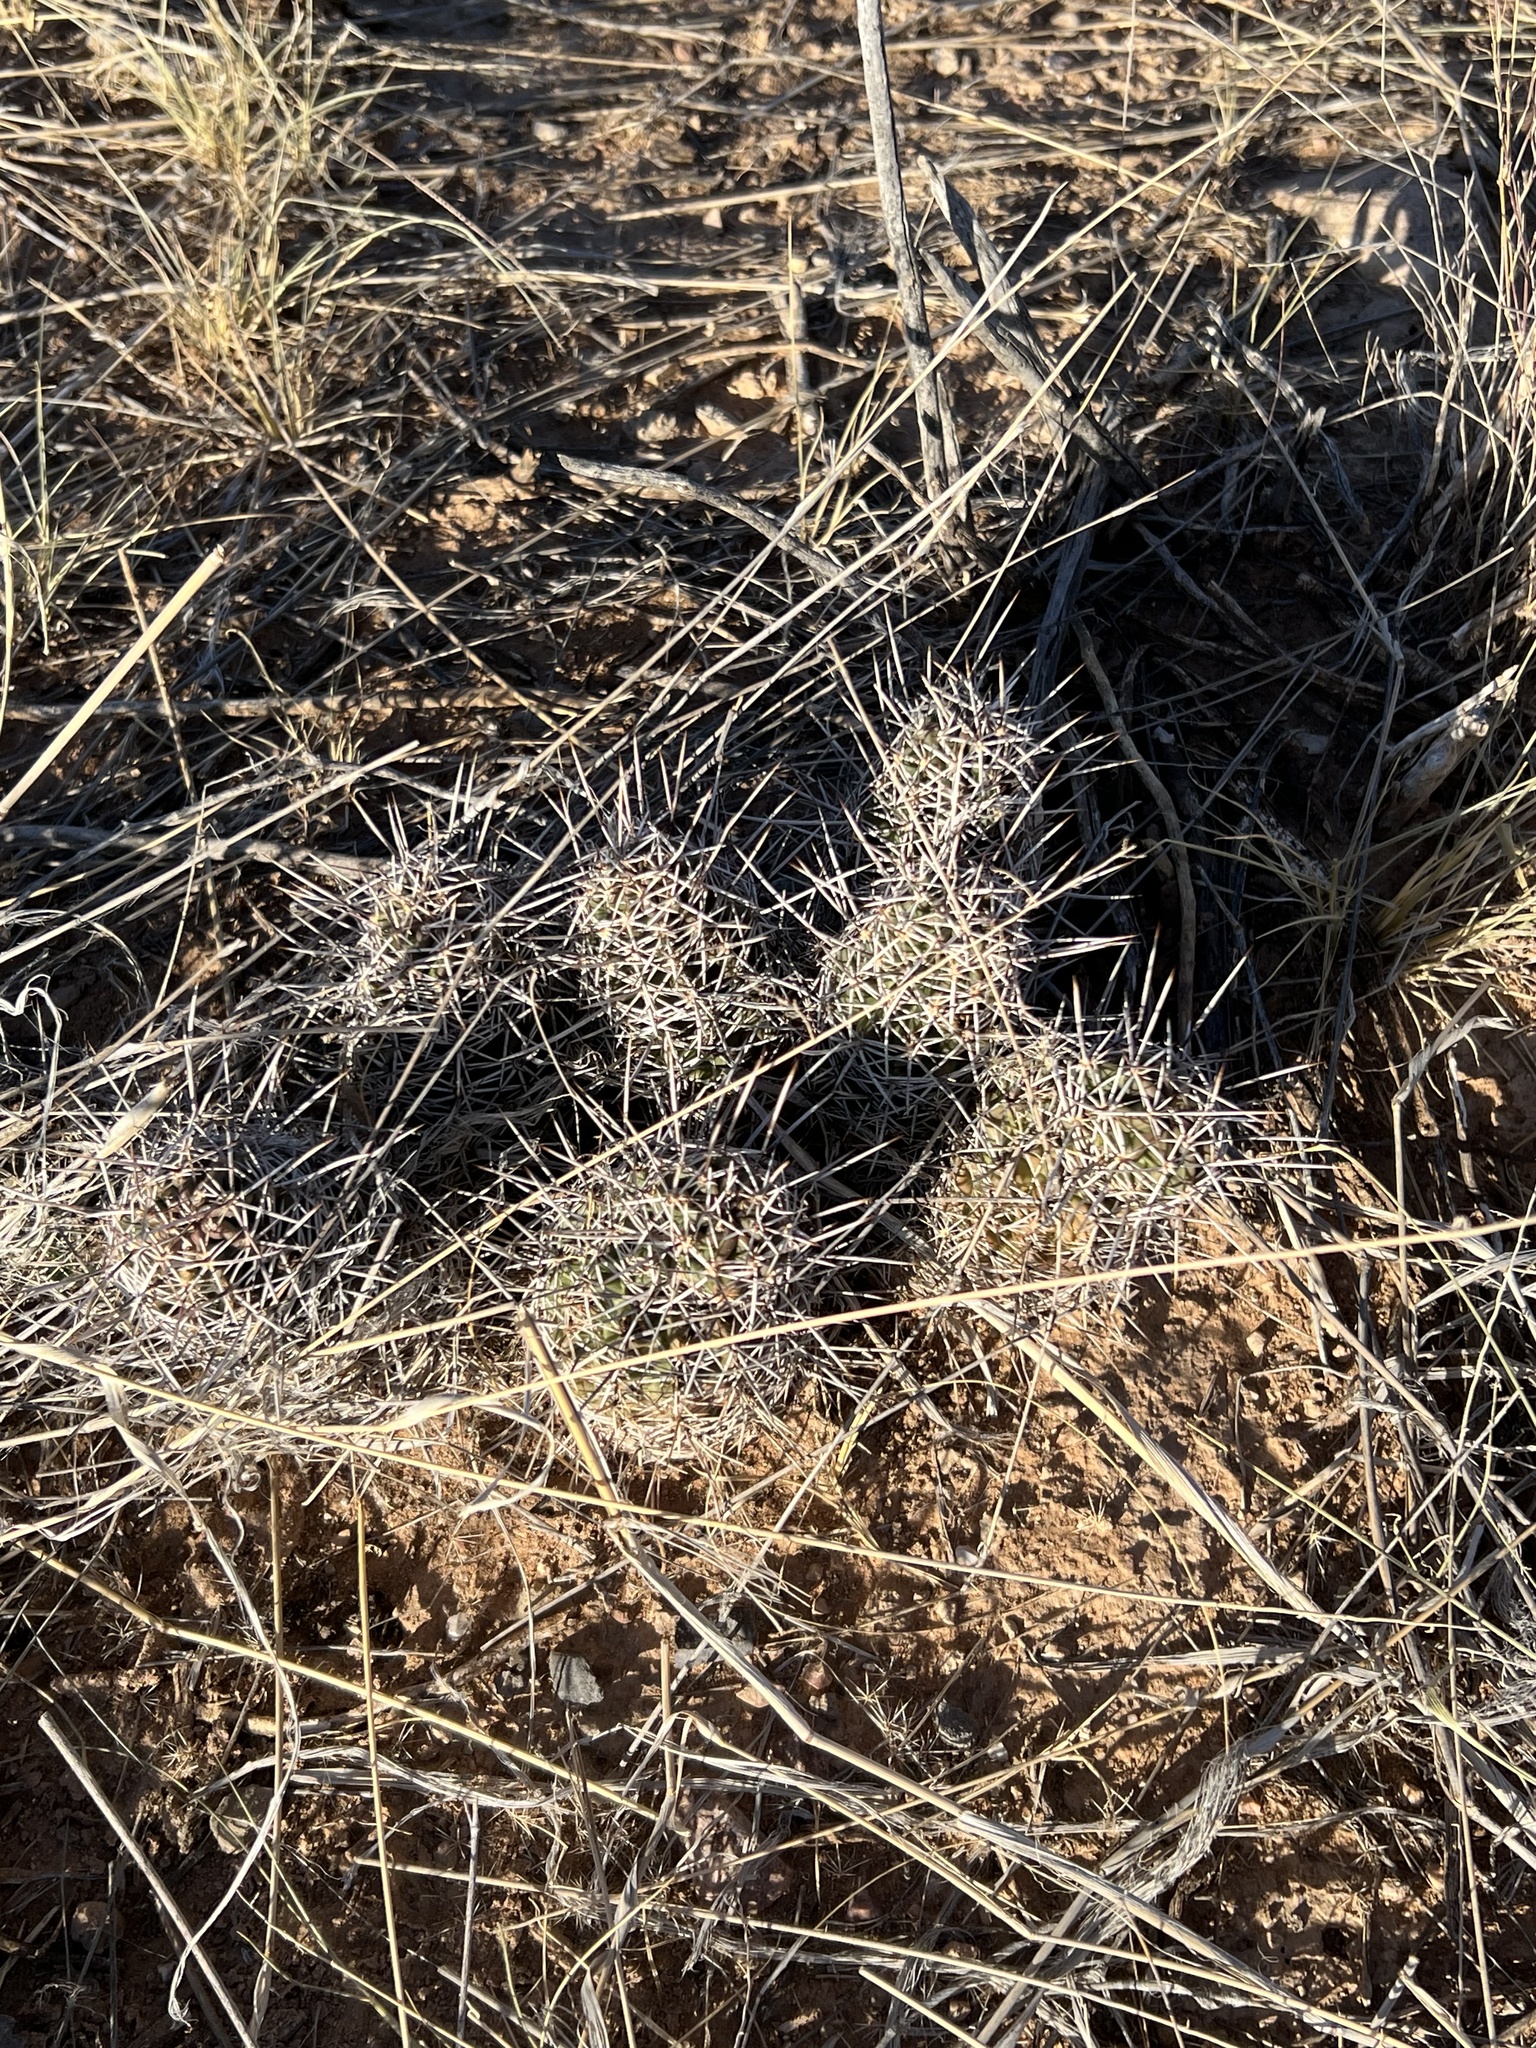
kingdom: Plantae
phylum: Tracheophyta
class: Magnoliopsida
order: Caryophyllales
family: Cactaceae
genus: Echinocereus
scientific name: Echinocereus fendleri
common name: Fendler's hedgehog cactus
